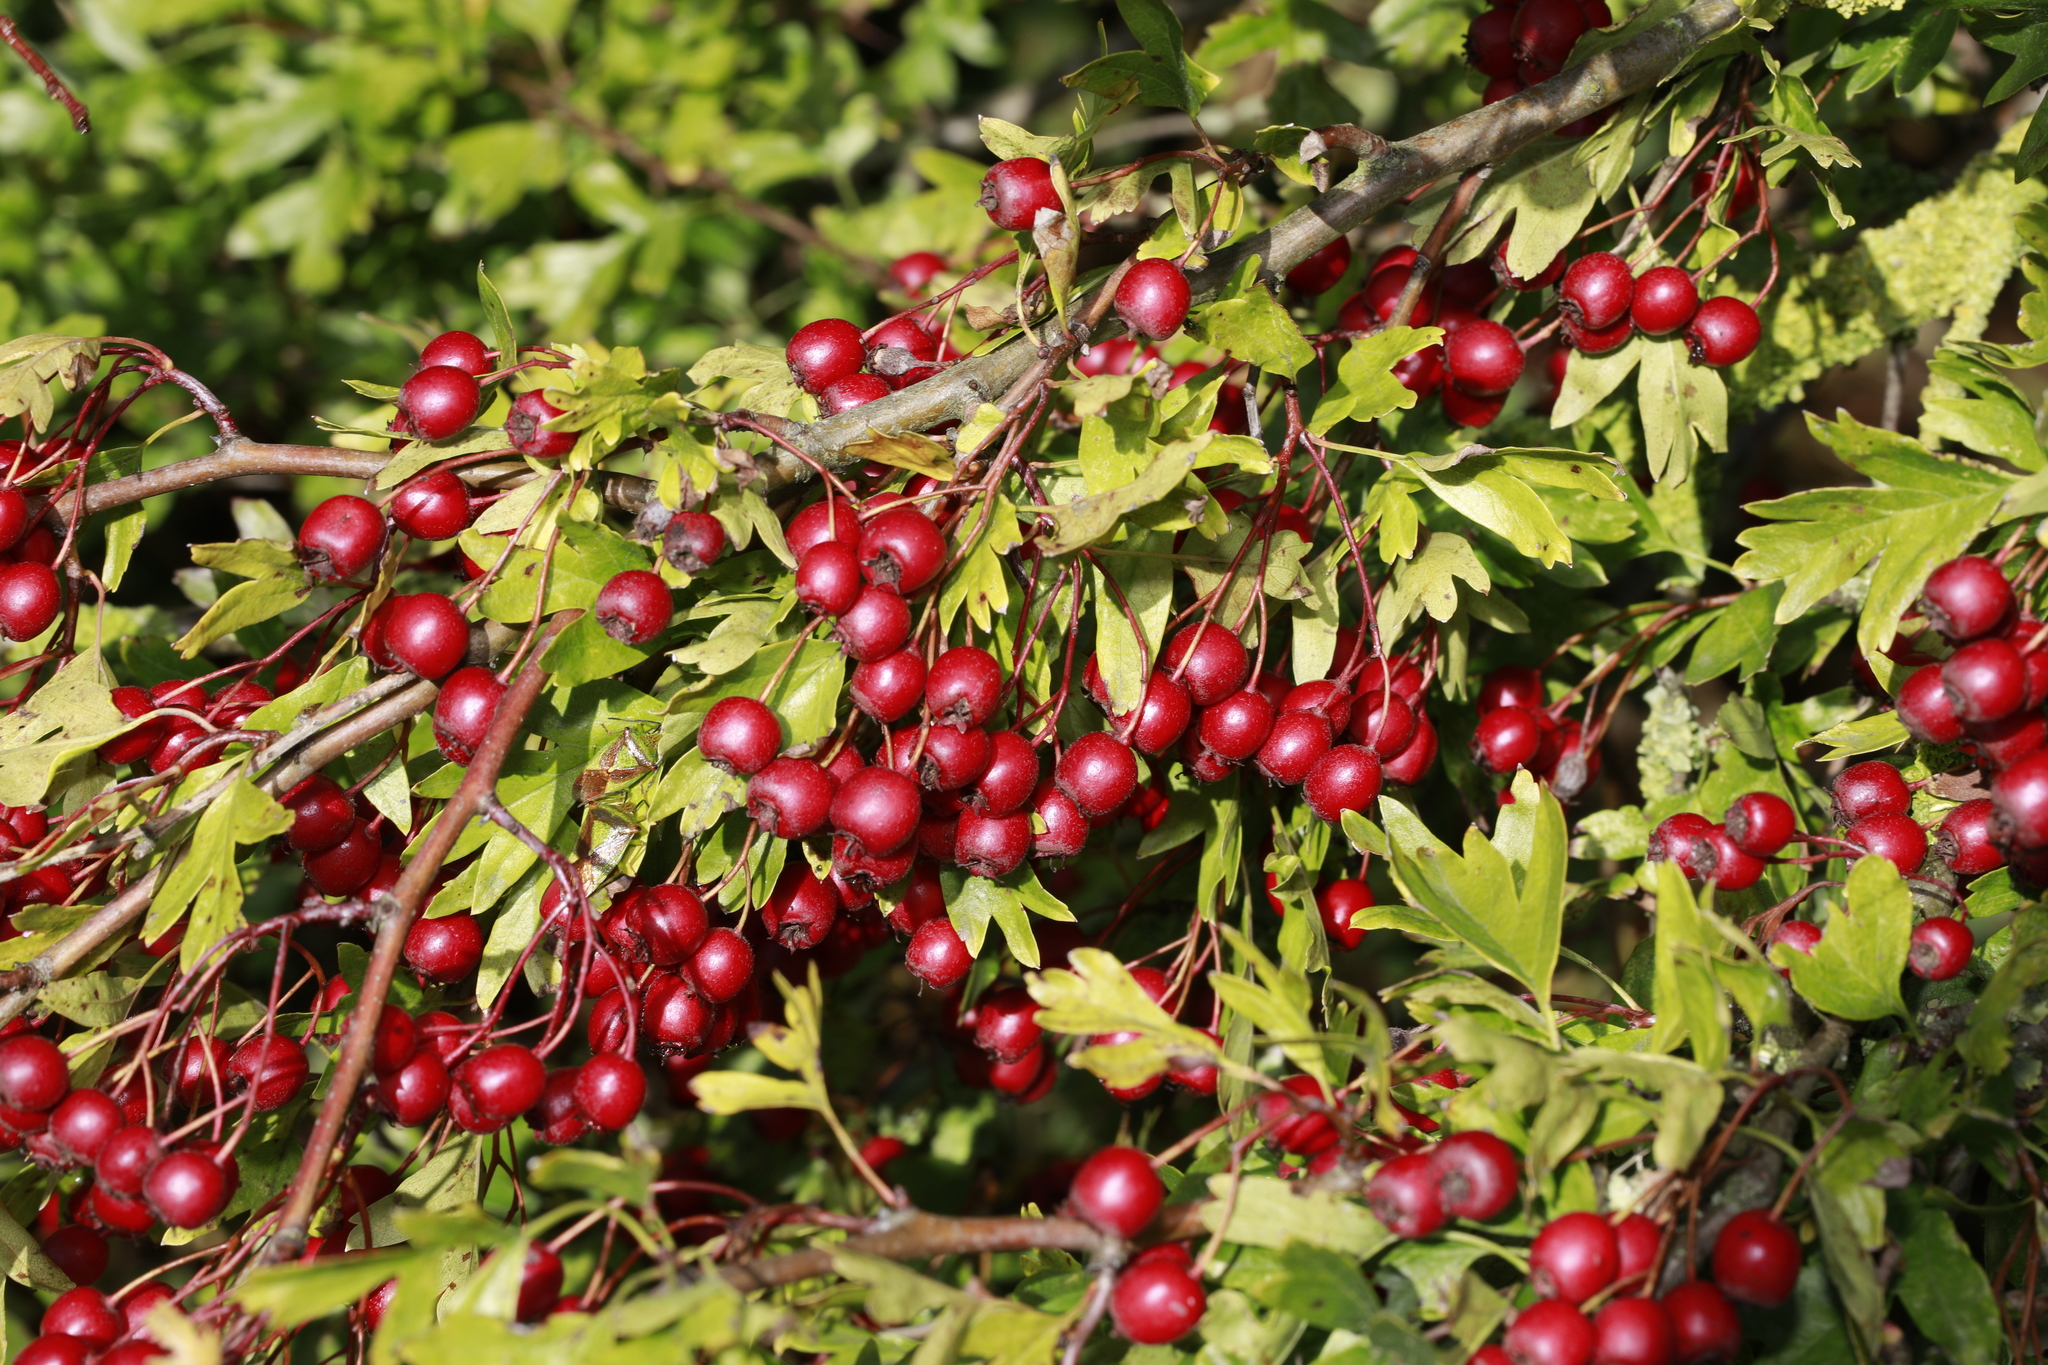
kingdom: Plantae
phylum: Tracheophyta
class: Magnoliopsida
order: Rosales
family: Rosaceae
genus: Crataegus
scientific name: Crataegus monogyna
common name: Hawthorn
